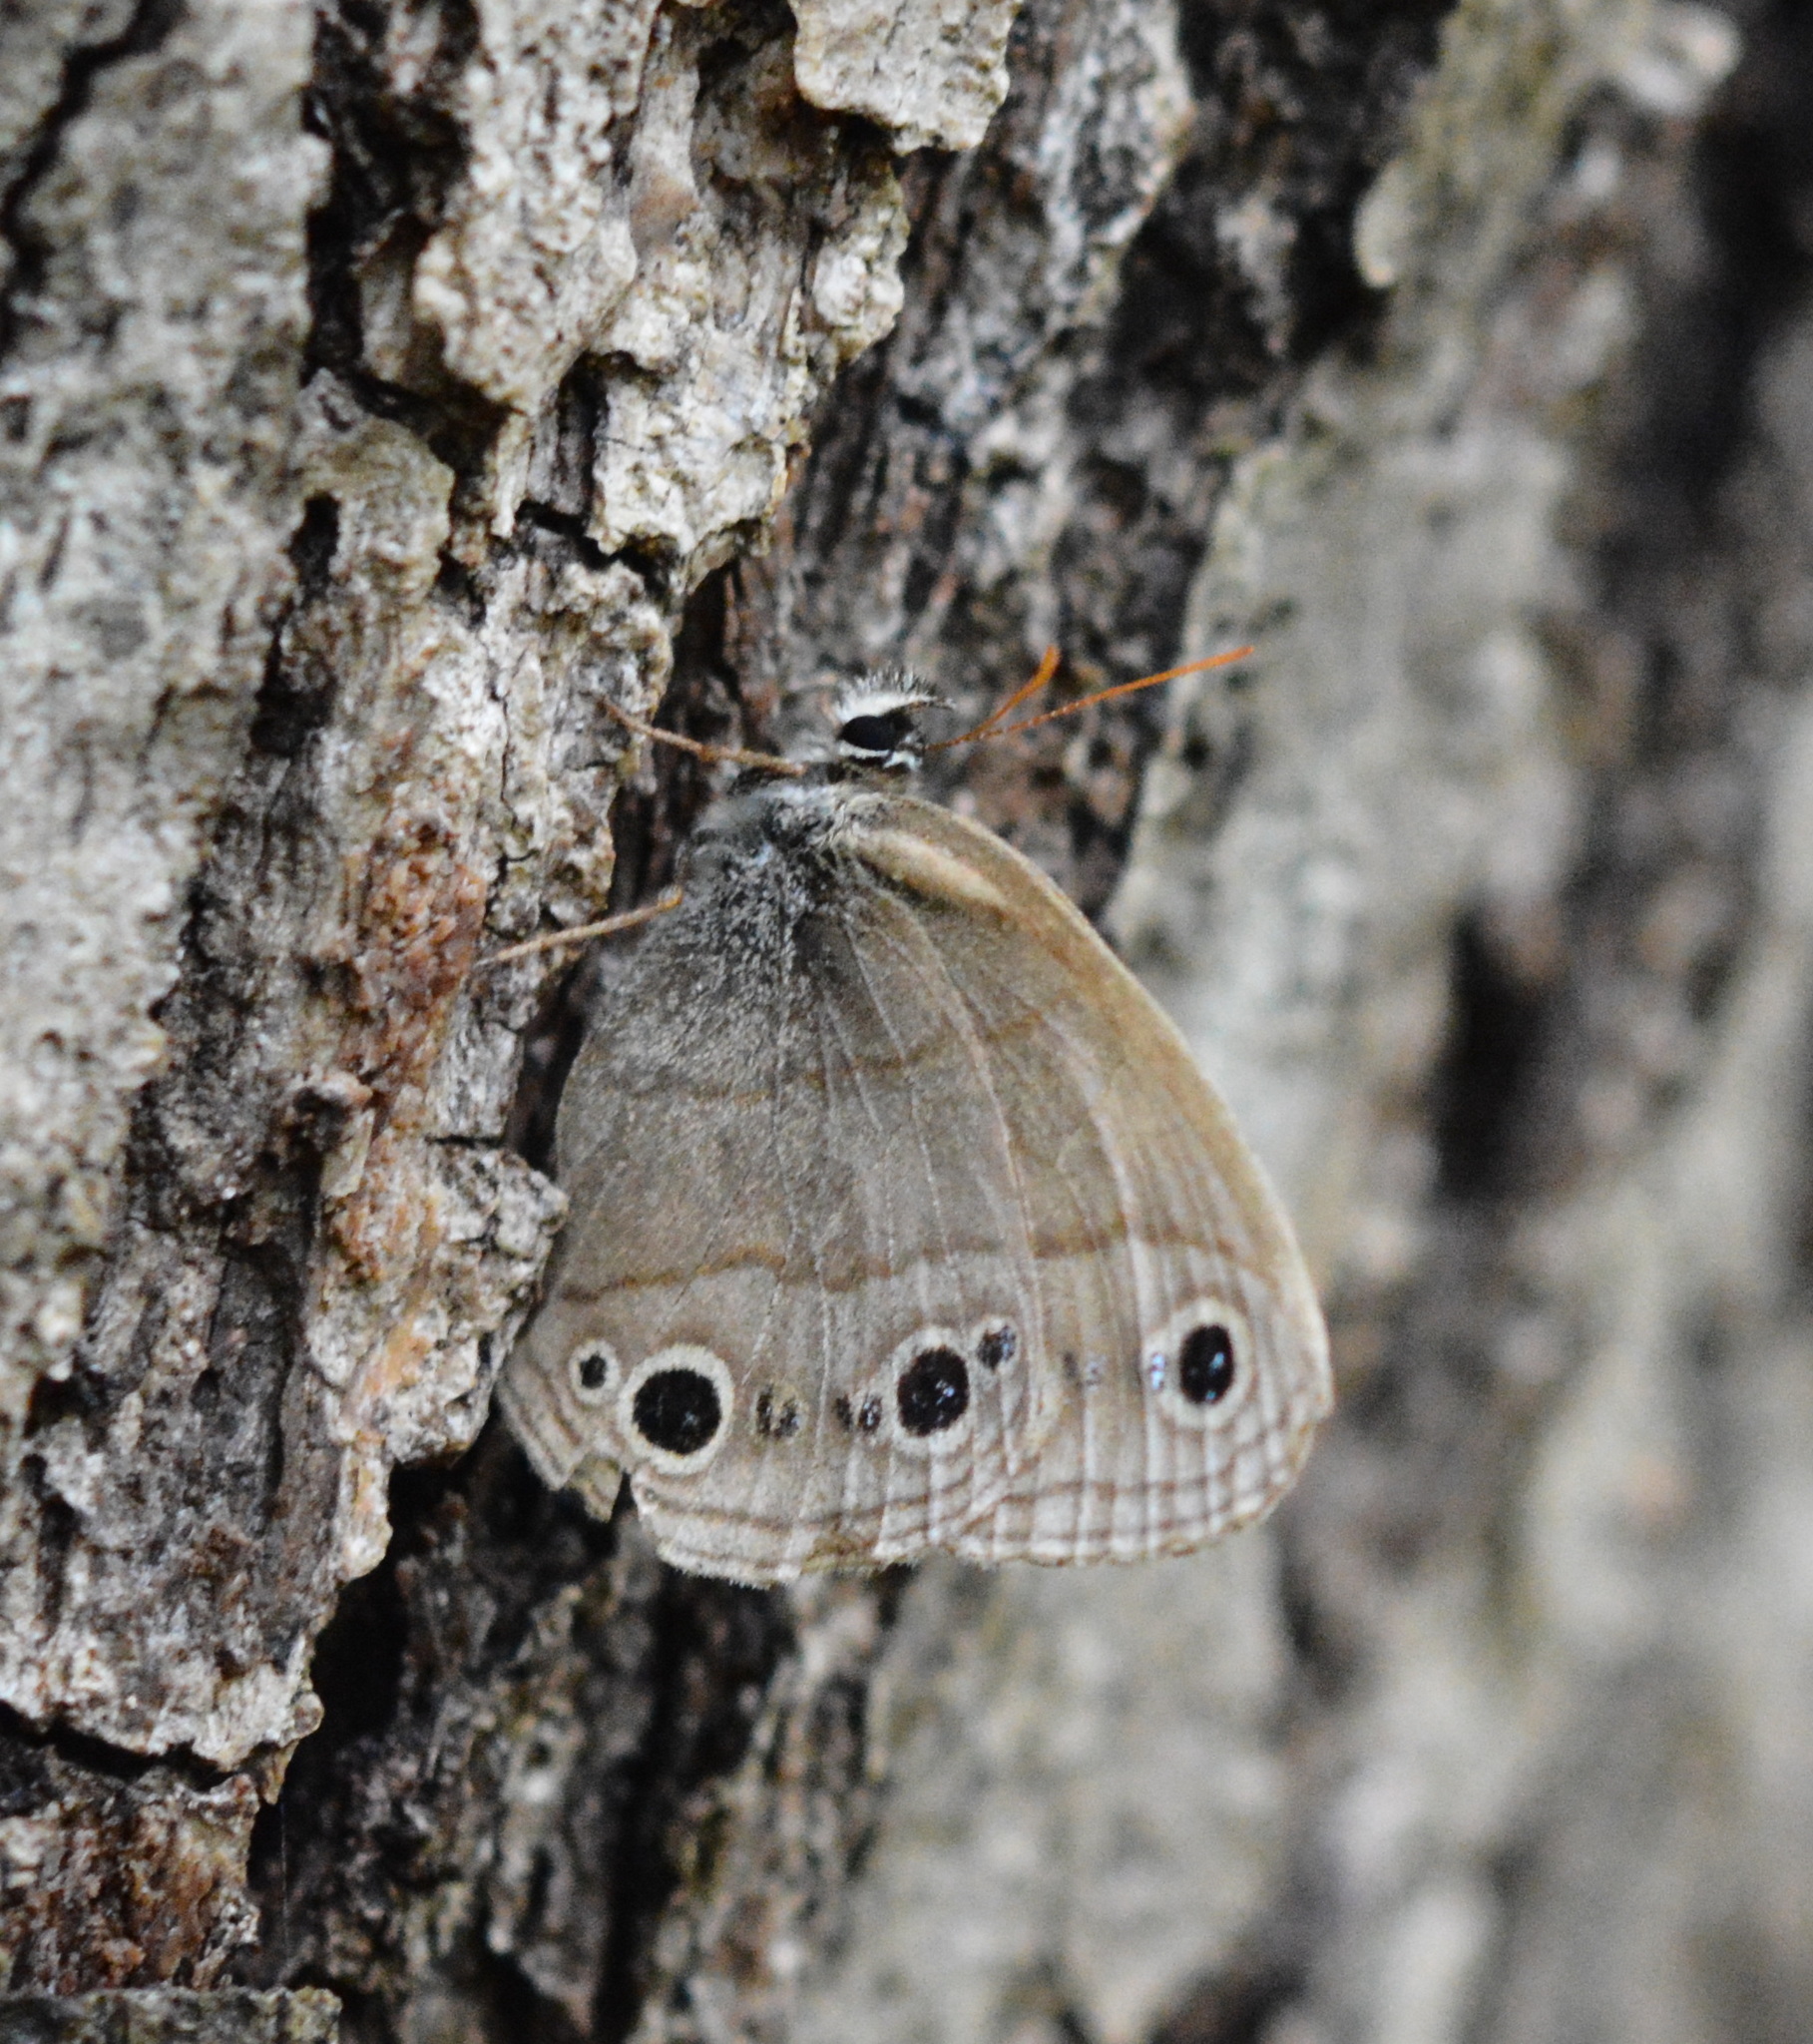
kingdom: Animalia
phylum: Arthropoda
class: Insecta
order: Lepidoptera
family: Nymphalidae
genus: Euptychia
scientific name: Euptychia cymela
